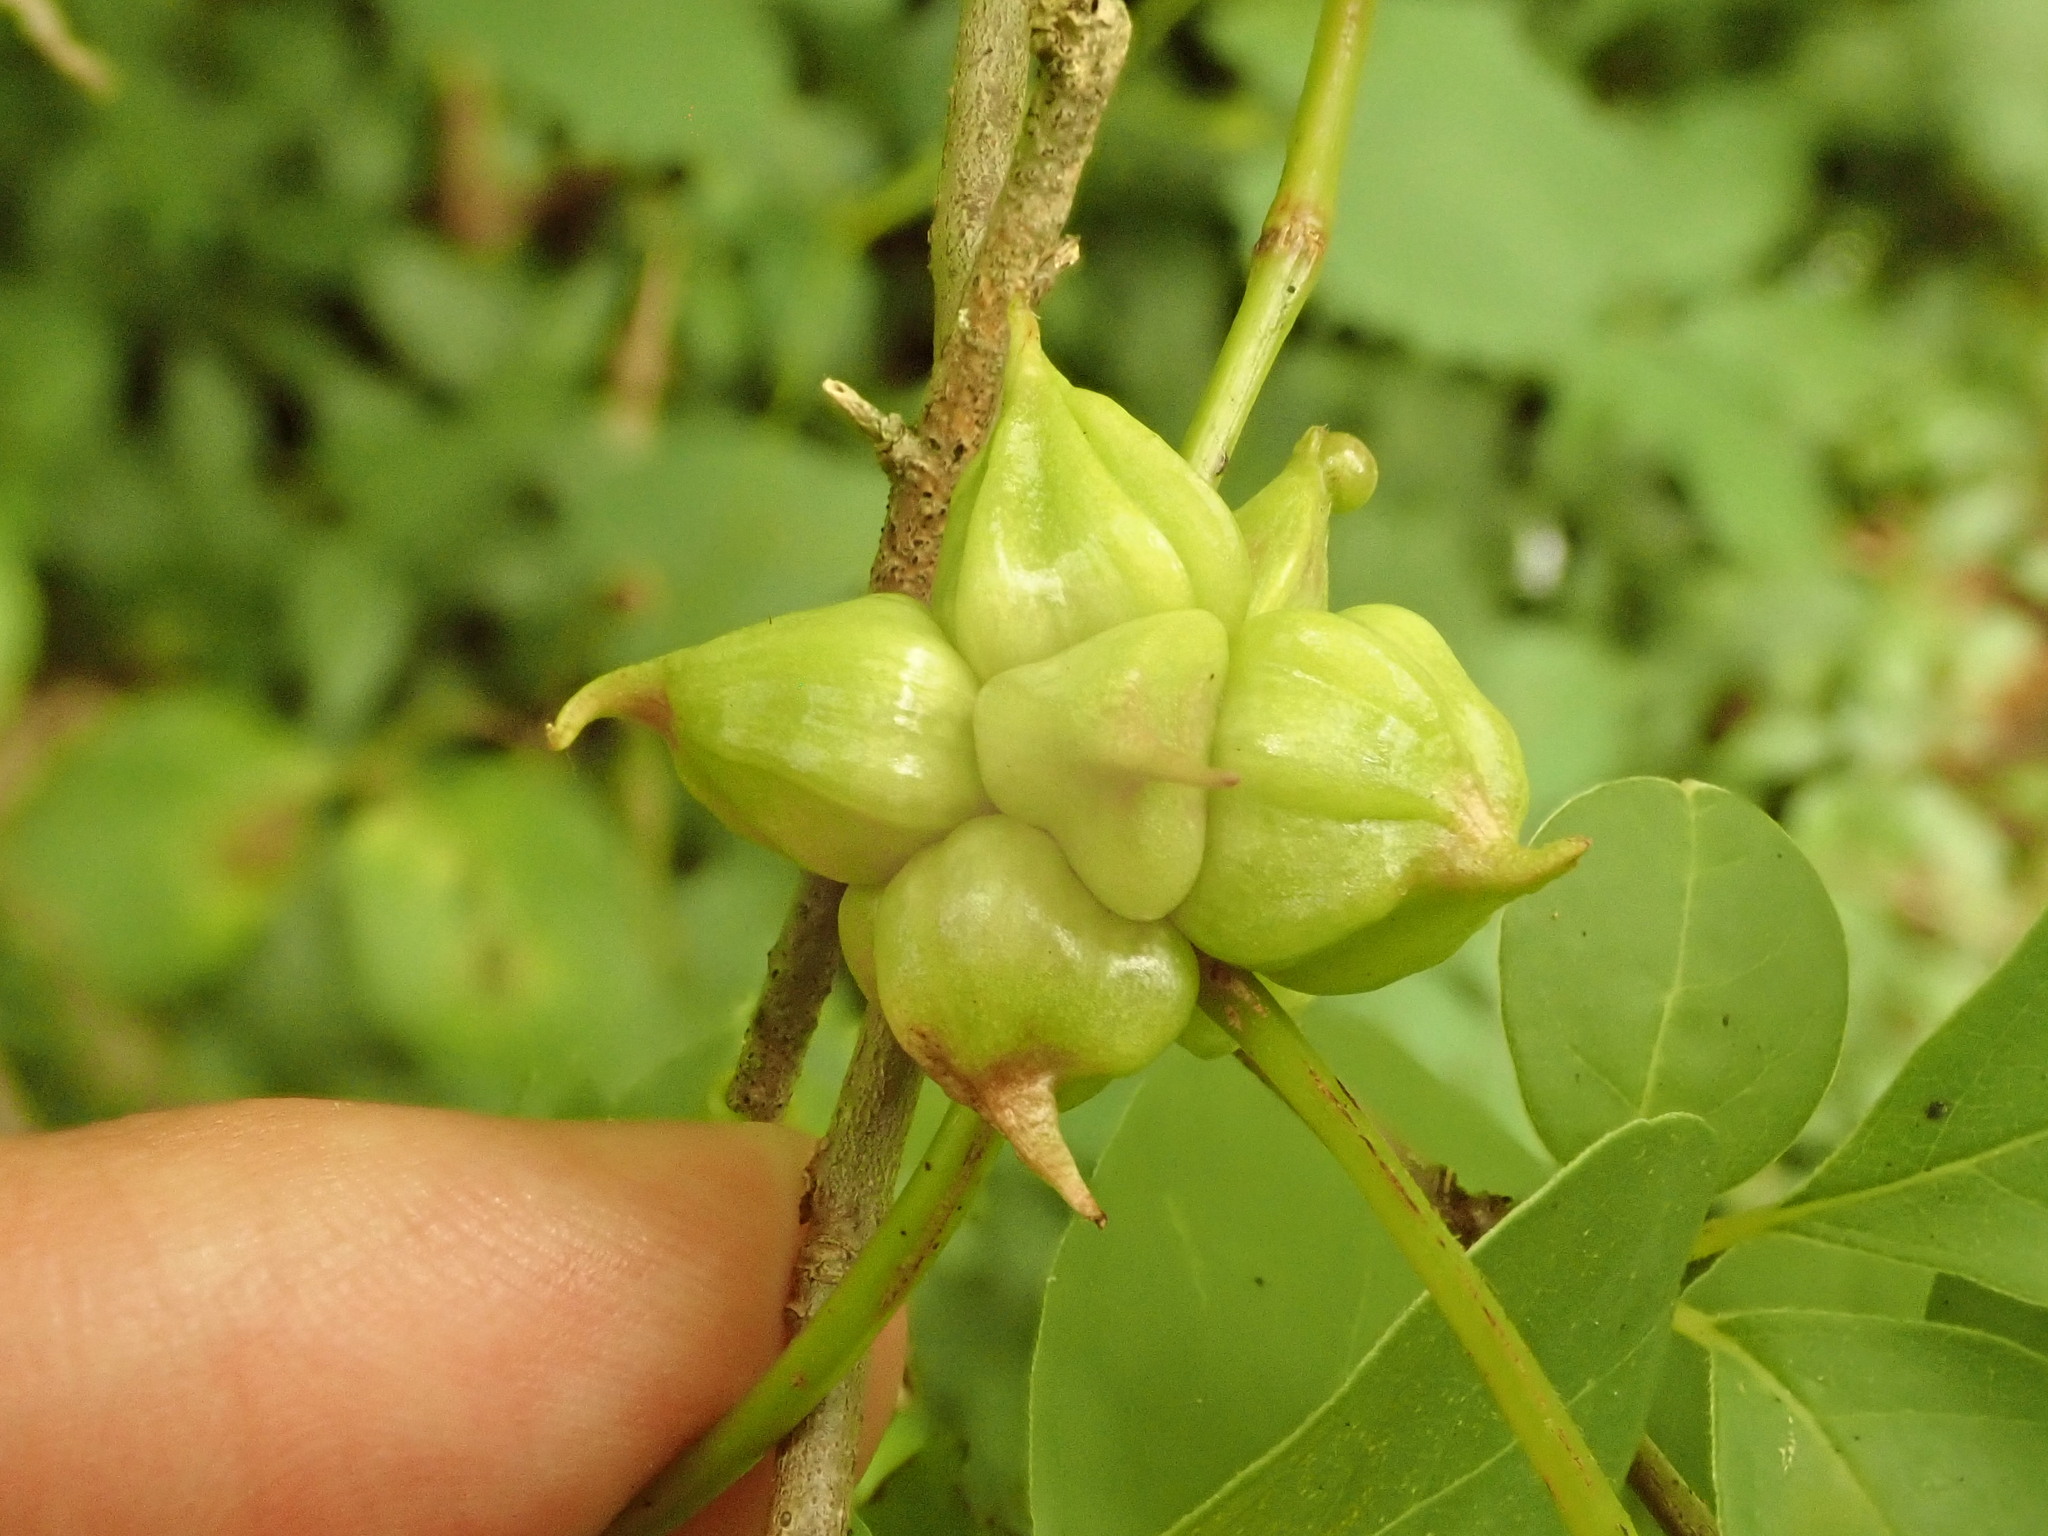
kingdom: Animalia
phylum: Arthropoda
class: Insecta
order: Diptera
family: Cecidomyiidae
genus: Ampelomyia
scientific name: Ampelomyia vitiscoryloides
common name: Grape filbert gall
